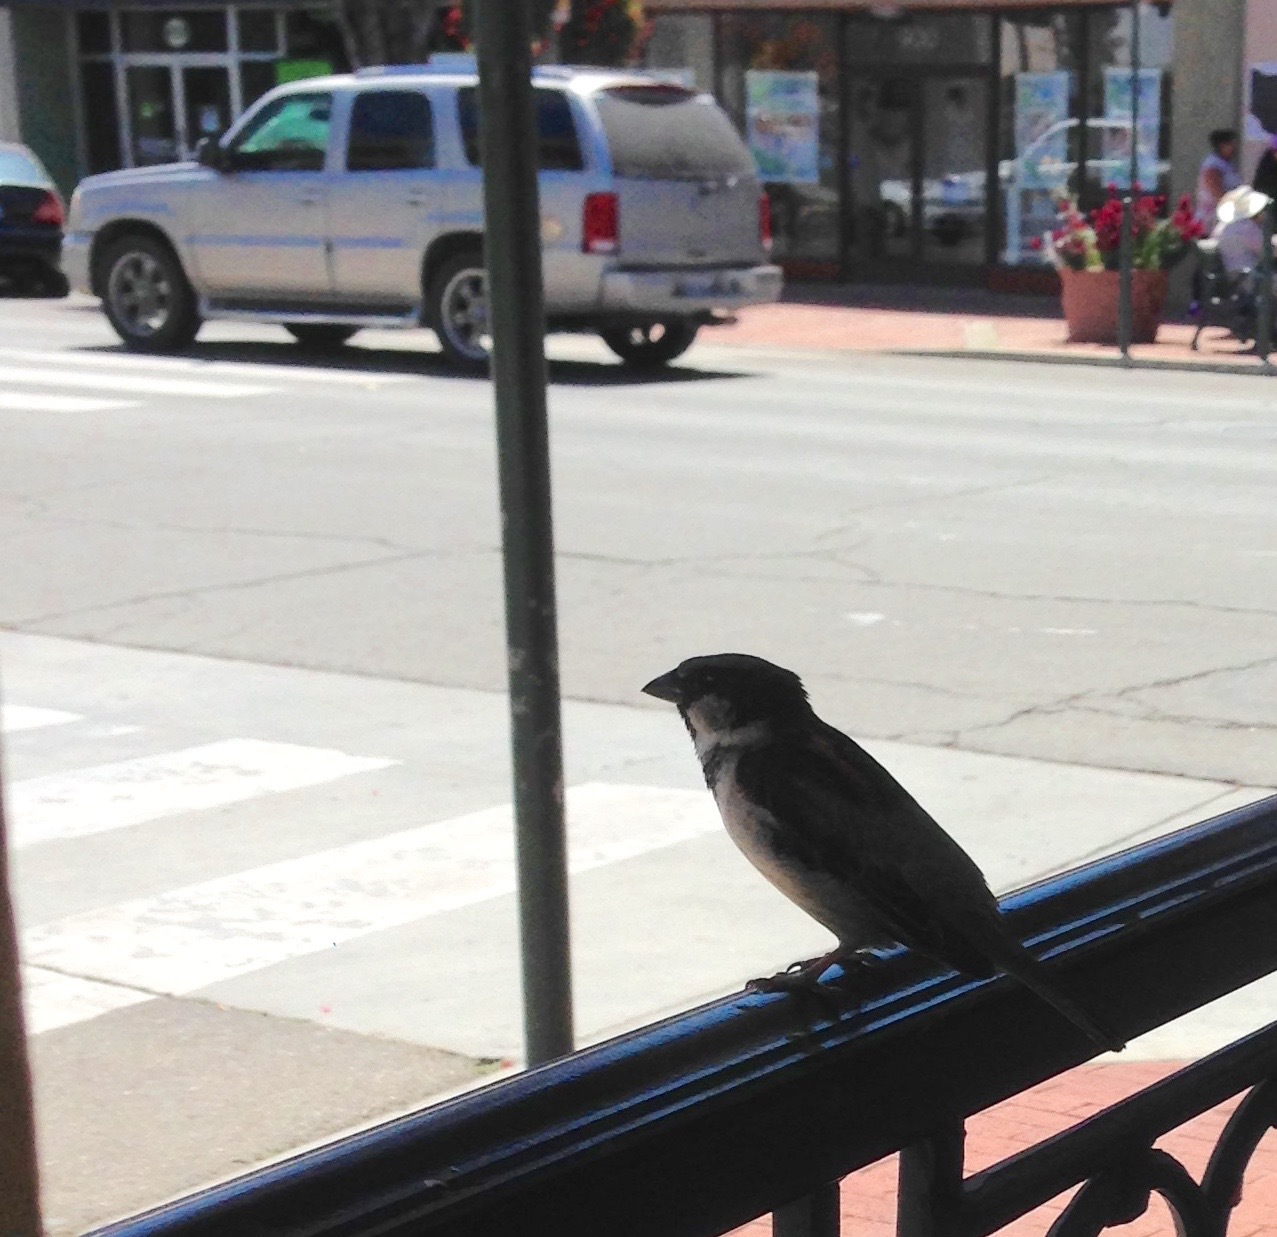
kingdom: Animalia
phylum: Chordata
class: Aves
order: Passeriformes
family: Passeridae
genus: Passer
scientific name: Passer domesticus
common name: House sparrow
